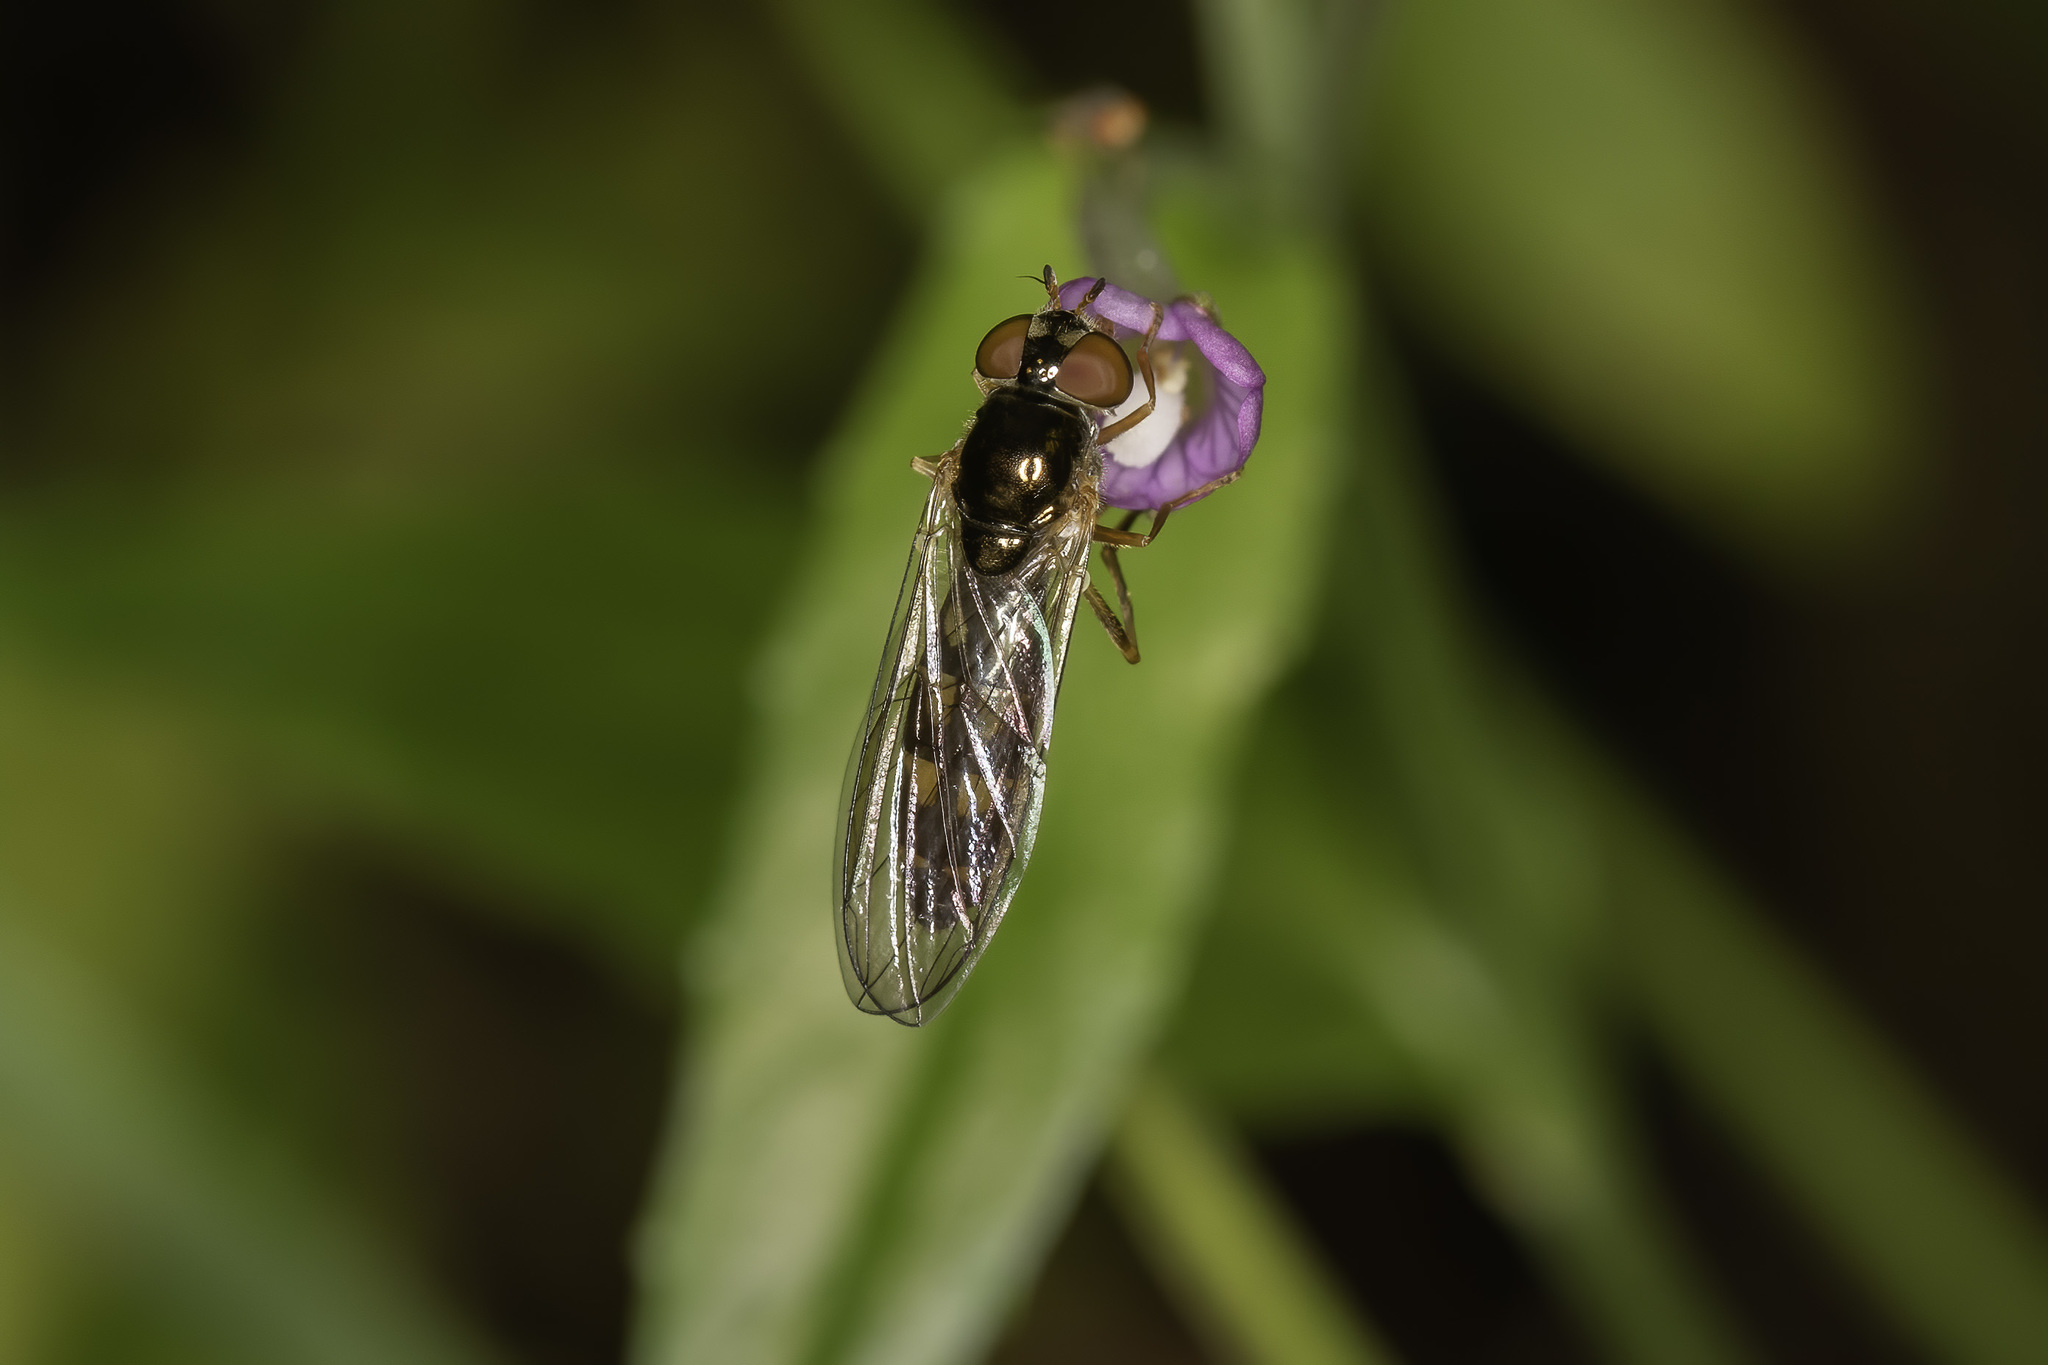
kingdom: Animalia
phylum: Arthropoda
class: Insecta
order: Diptera
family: Syrphidae
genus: Melanostoma
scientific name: Melanostoma scalare
